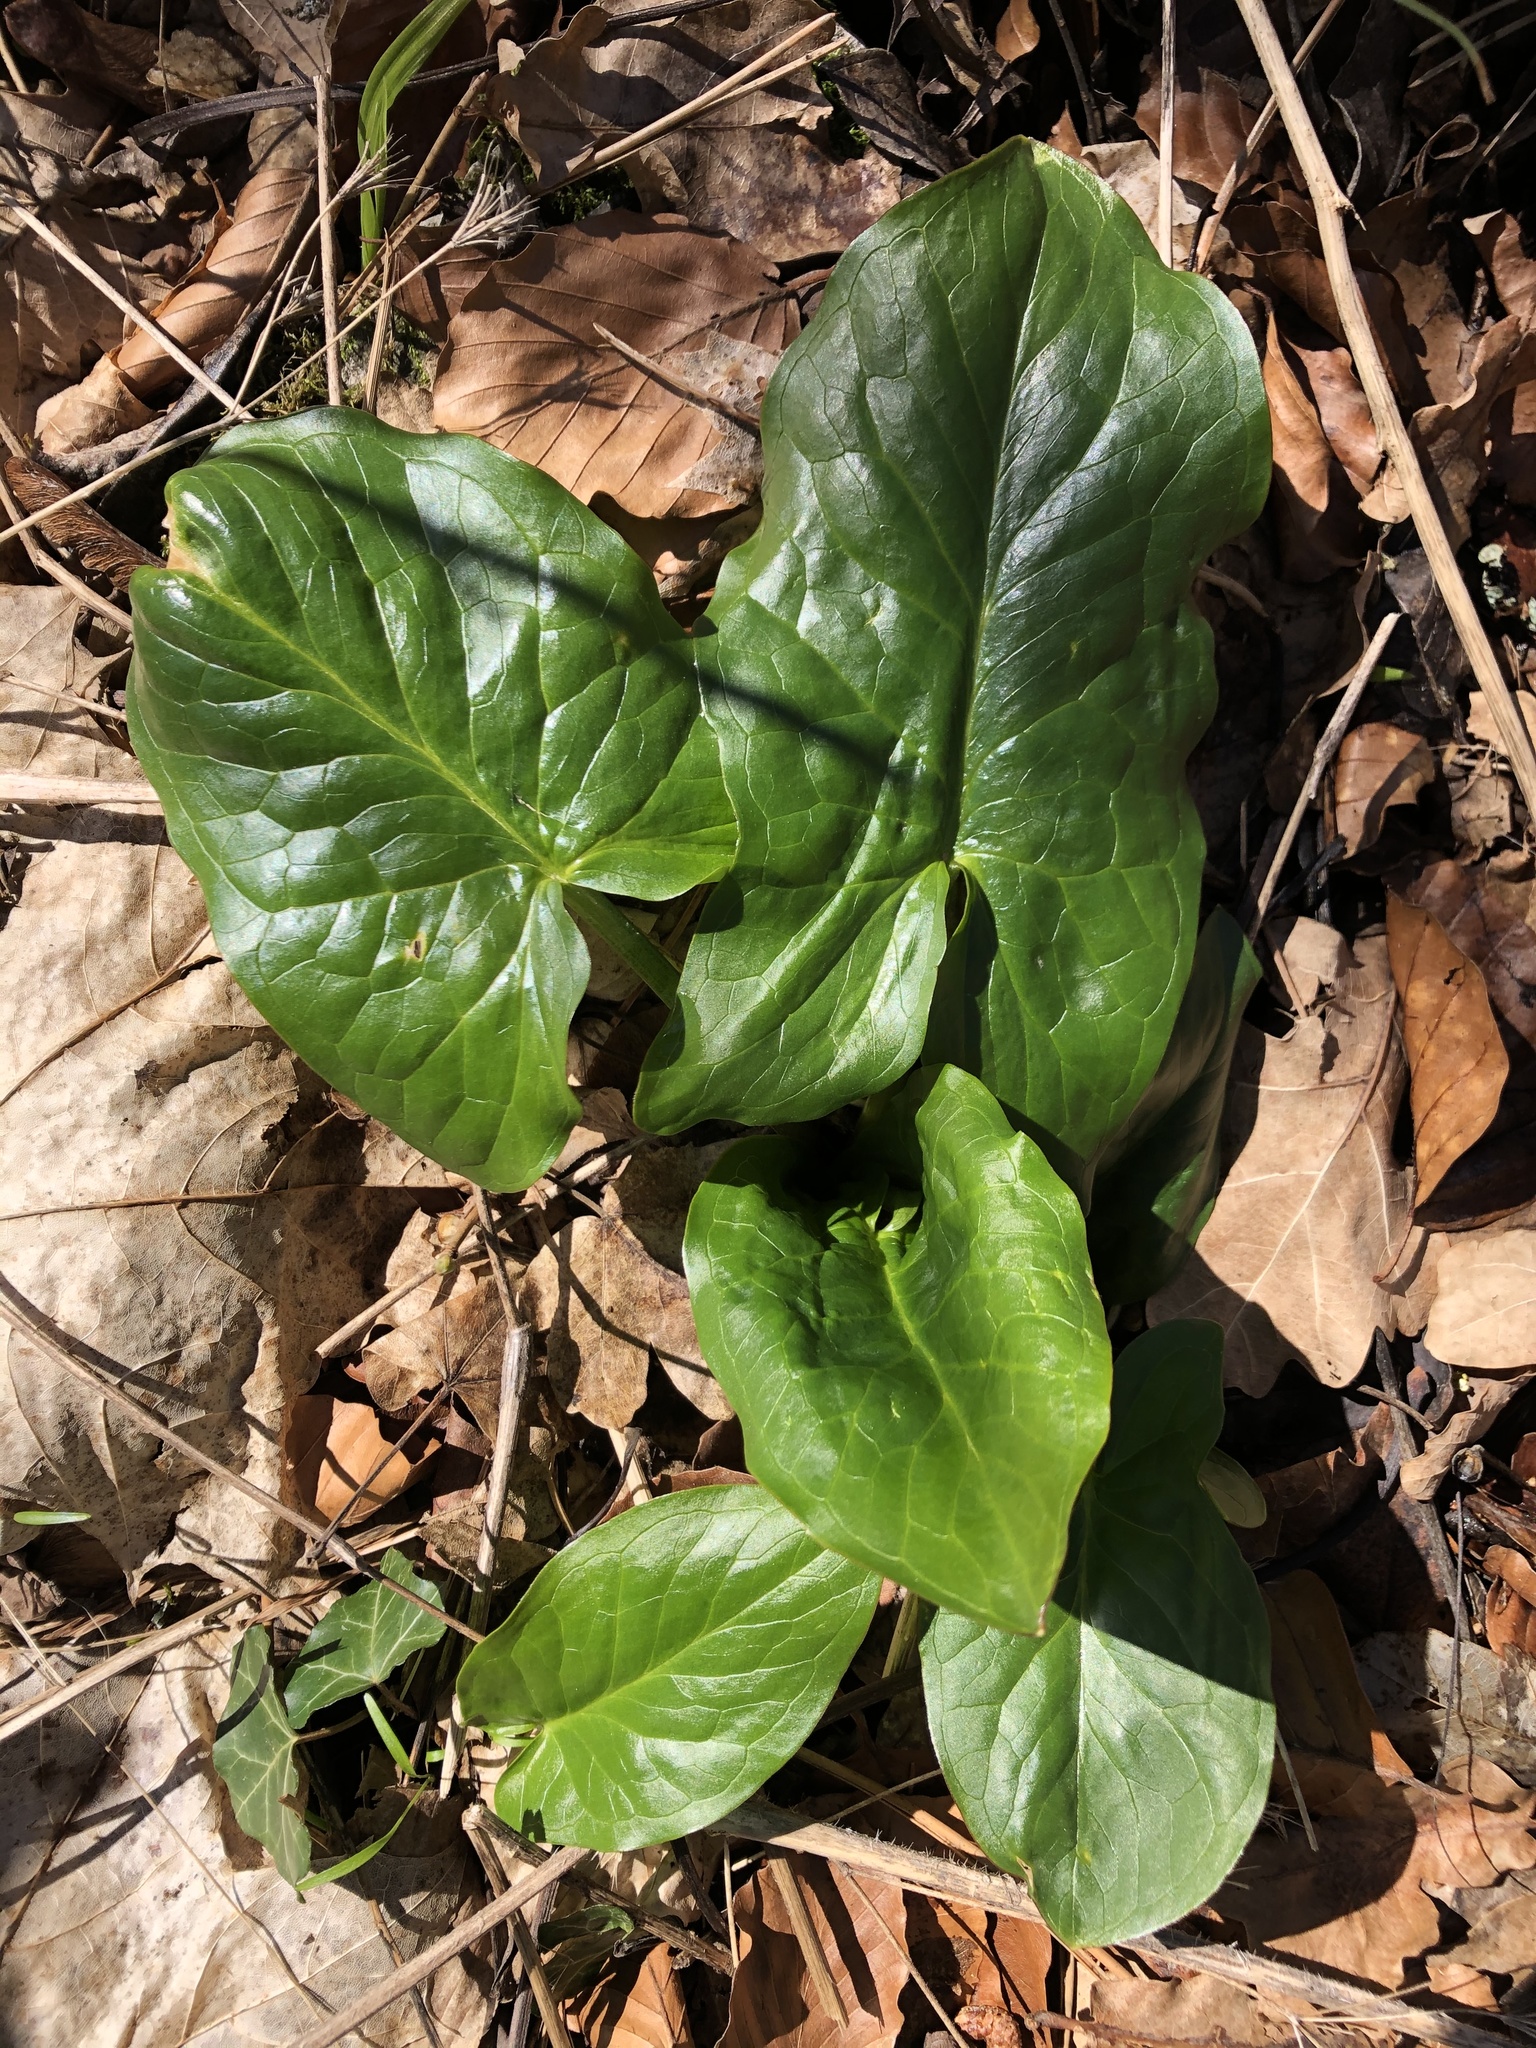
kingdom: Plantae
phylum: Tracheophyta
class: Liliopsida
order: Alismatales
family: Araceae
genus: Arum
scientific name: Arum maculatum
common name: Lords-and-ladies
